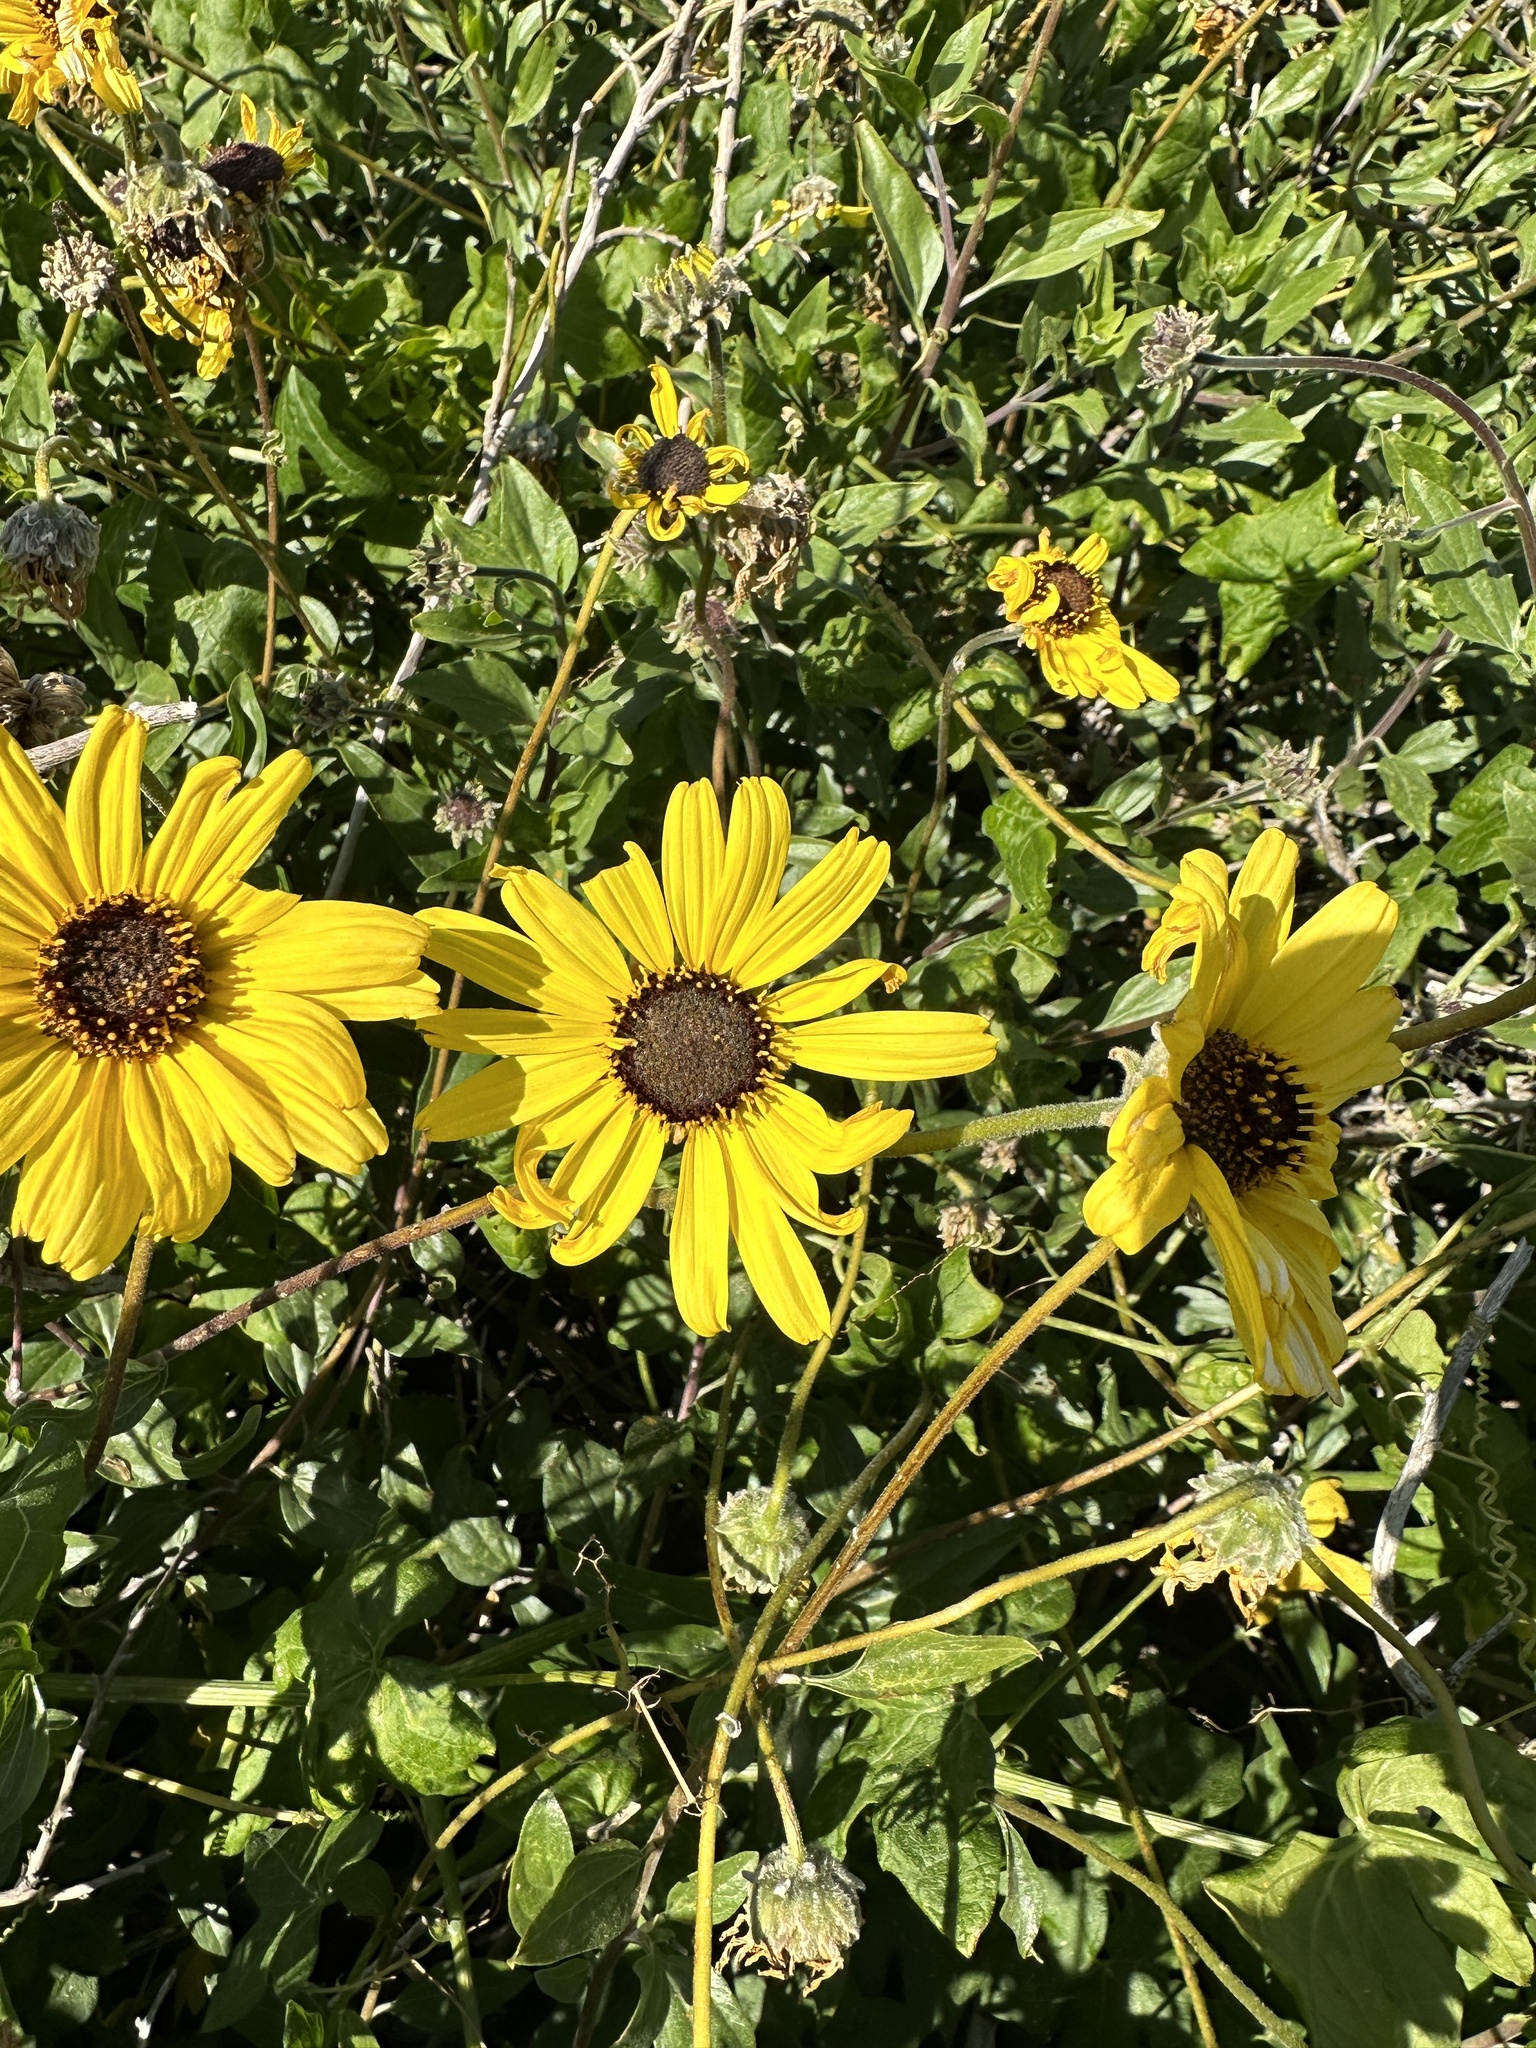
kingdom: Plantae
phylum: Tracheophyta
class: Magnoliopsida
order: Asterales
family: Asteraceae
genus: Encelia
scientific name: Encelia californica
